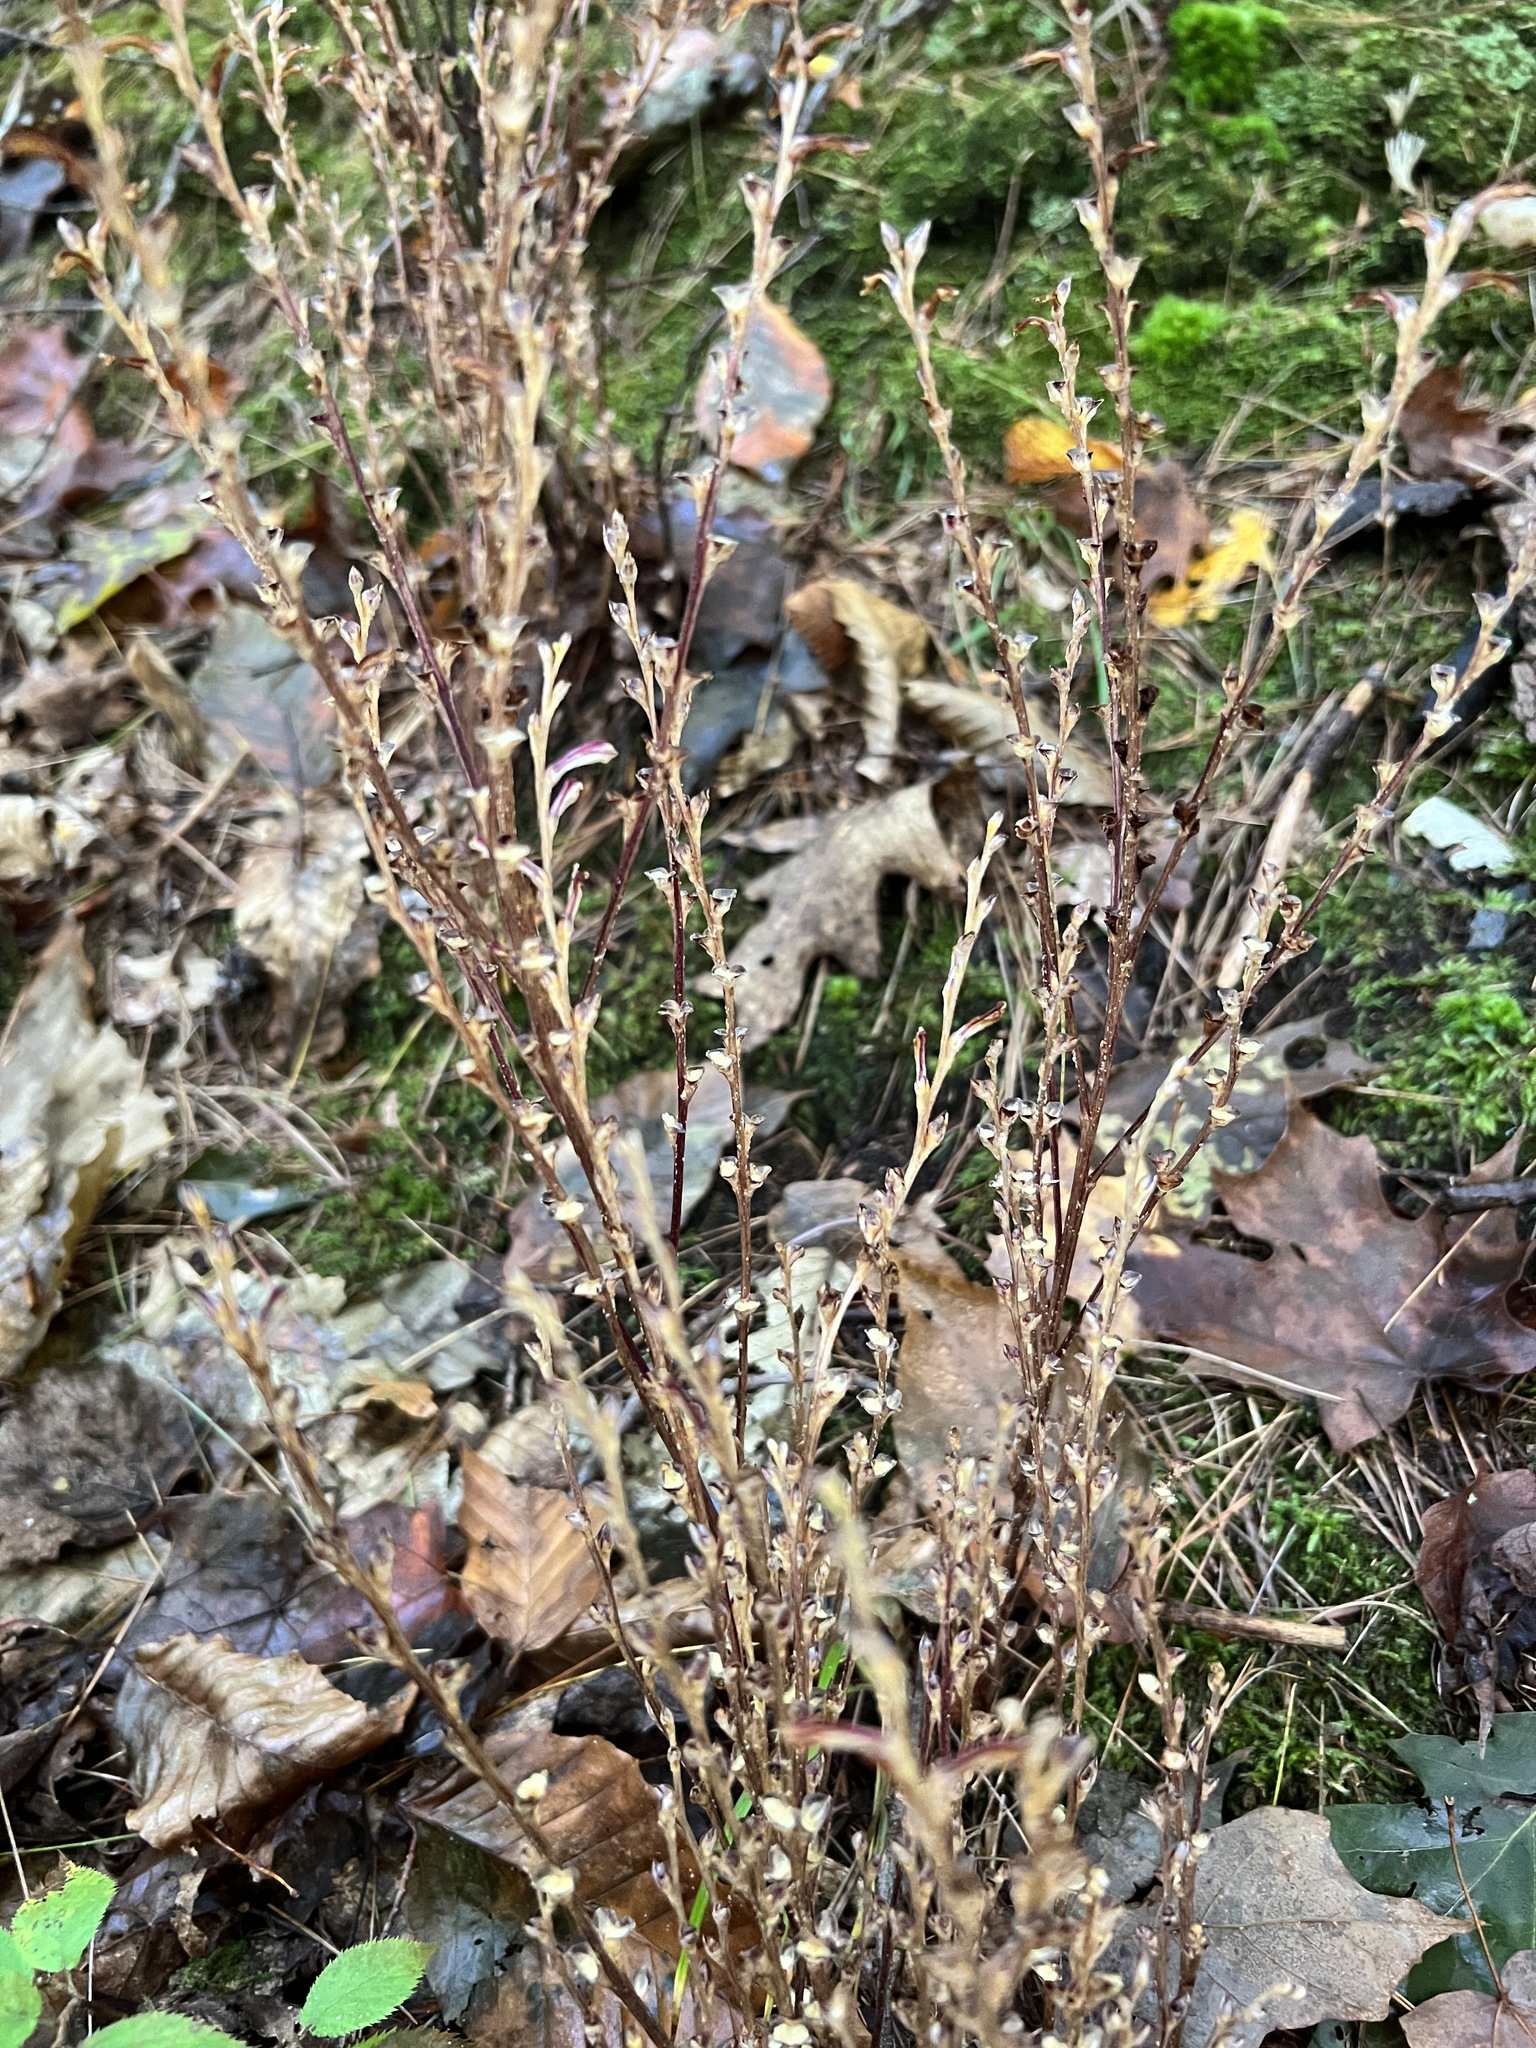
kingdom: Plantae
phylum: Tracheophyta
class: Magnoliopsida
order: Lamiales
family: Orobanchaceae
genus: Epifagus
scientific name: Epifagus virginiana
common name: Beechdrops
